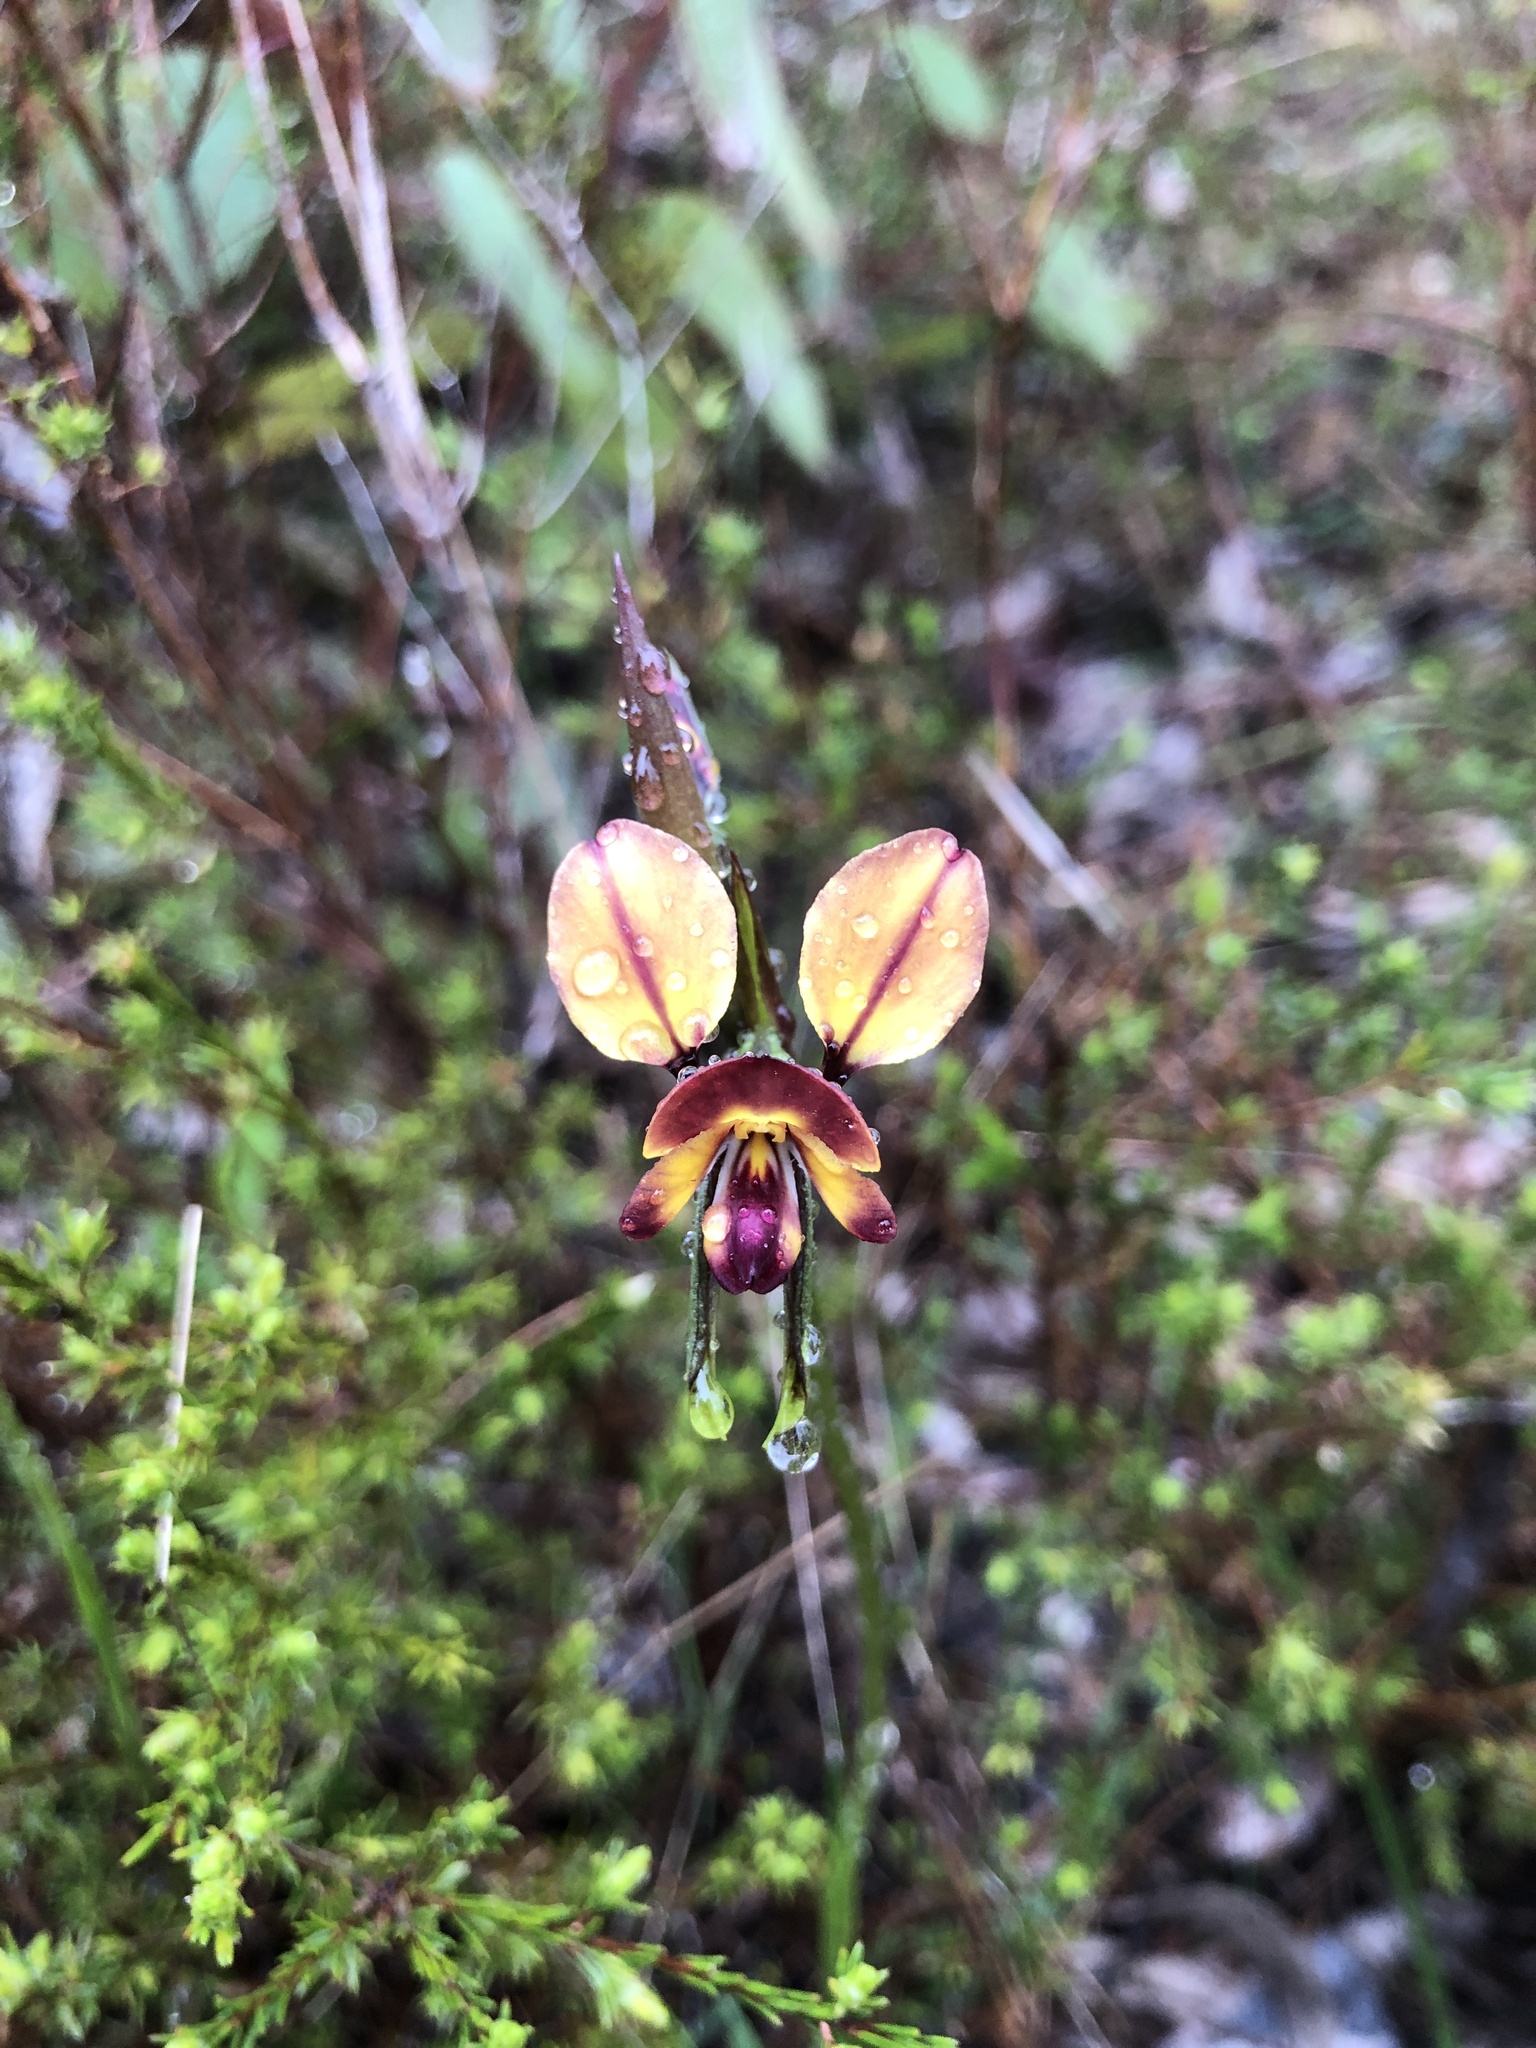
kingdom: Plantae
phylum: Tracheophyta
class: Liliopsida
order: Asparagales
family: Orchidaceae
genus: Diuris
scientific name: Diuris orientis
